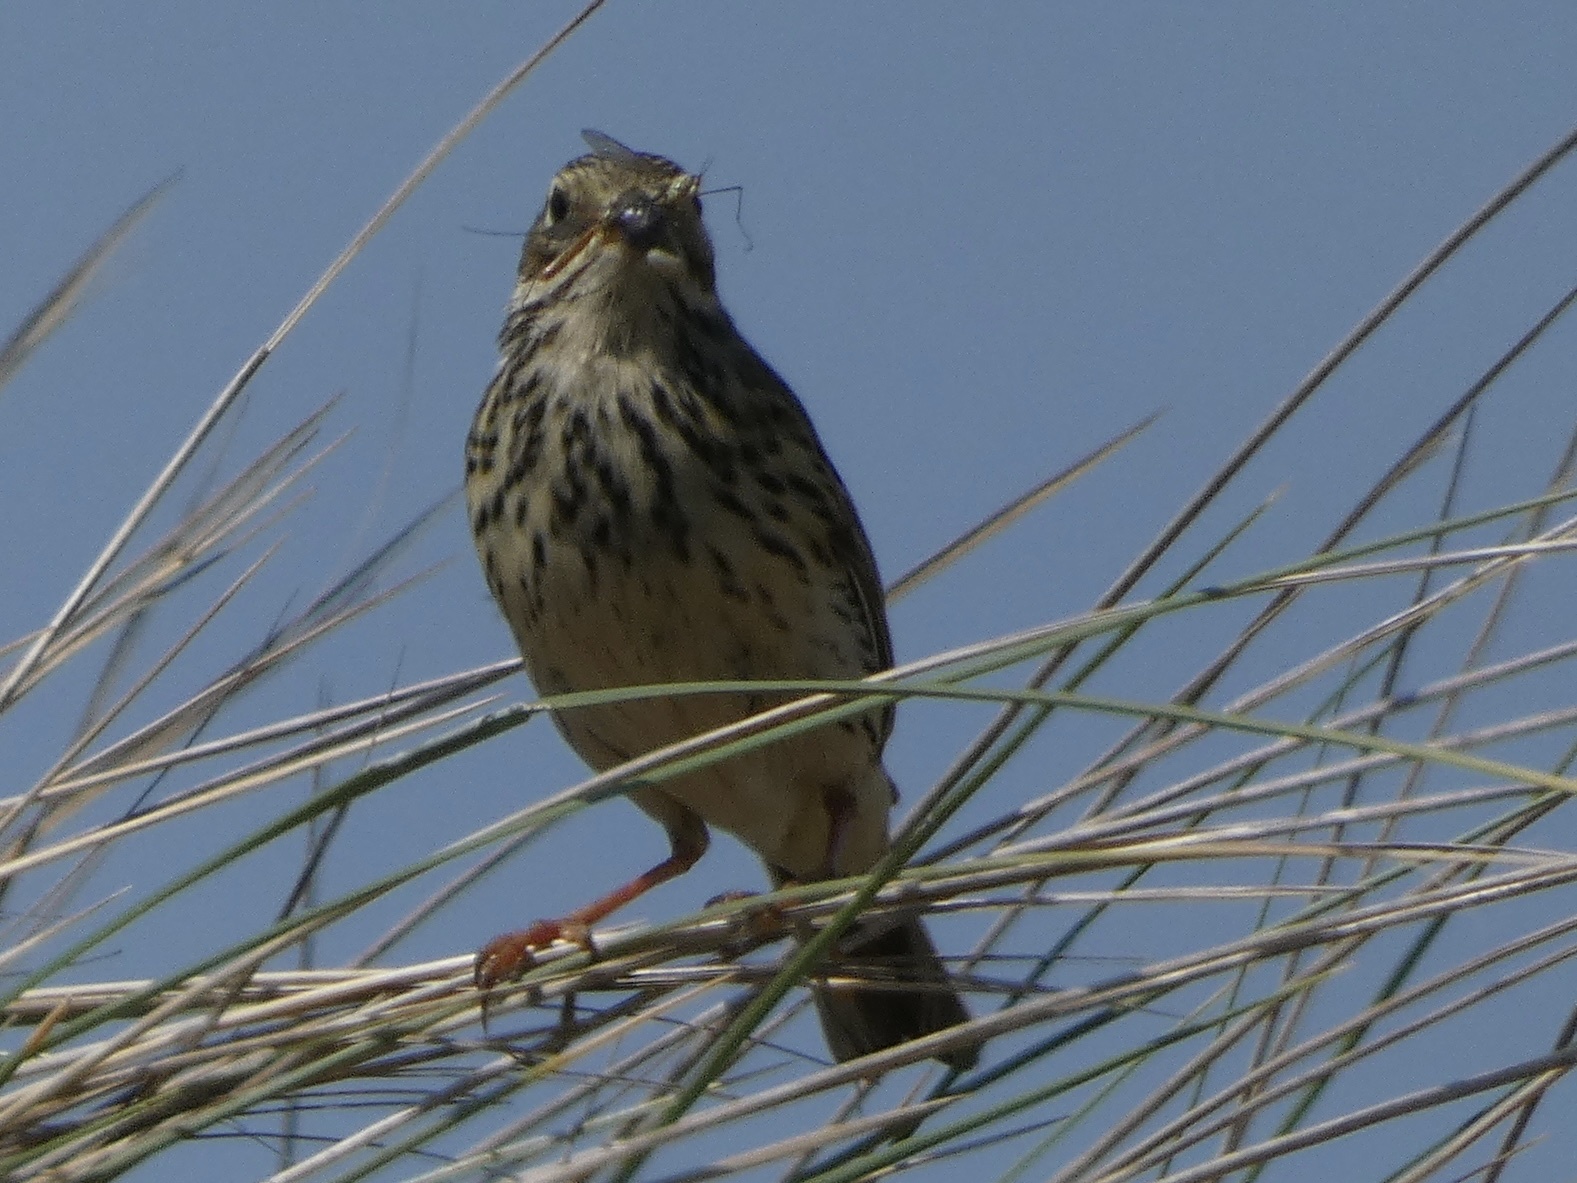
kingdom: Animalia
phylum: Chordata
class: Aves
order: Passeriformes
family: Motacillidae
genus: Anthus
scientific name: Anthus pratensis
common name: Meadow pipit
